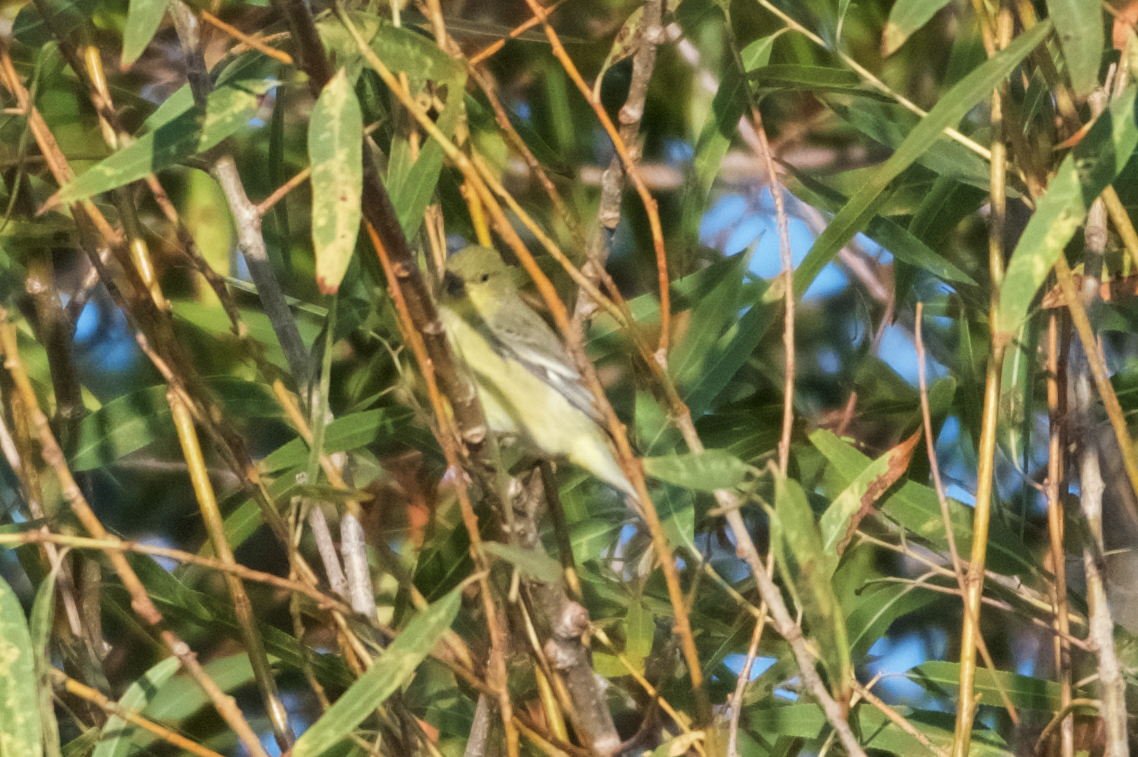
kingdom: Animalia
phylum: Chordata
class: Aves
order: Passeriformes
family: Fringillidae
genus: Spinus
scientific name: Spinus psaltria
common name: Lesser goldfinch
